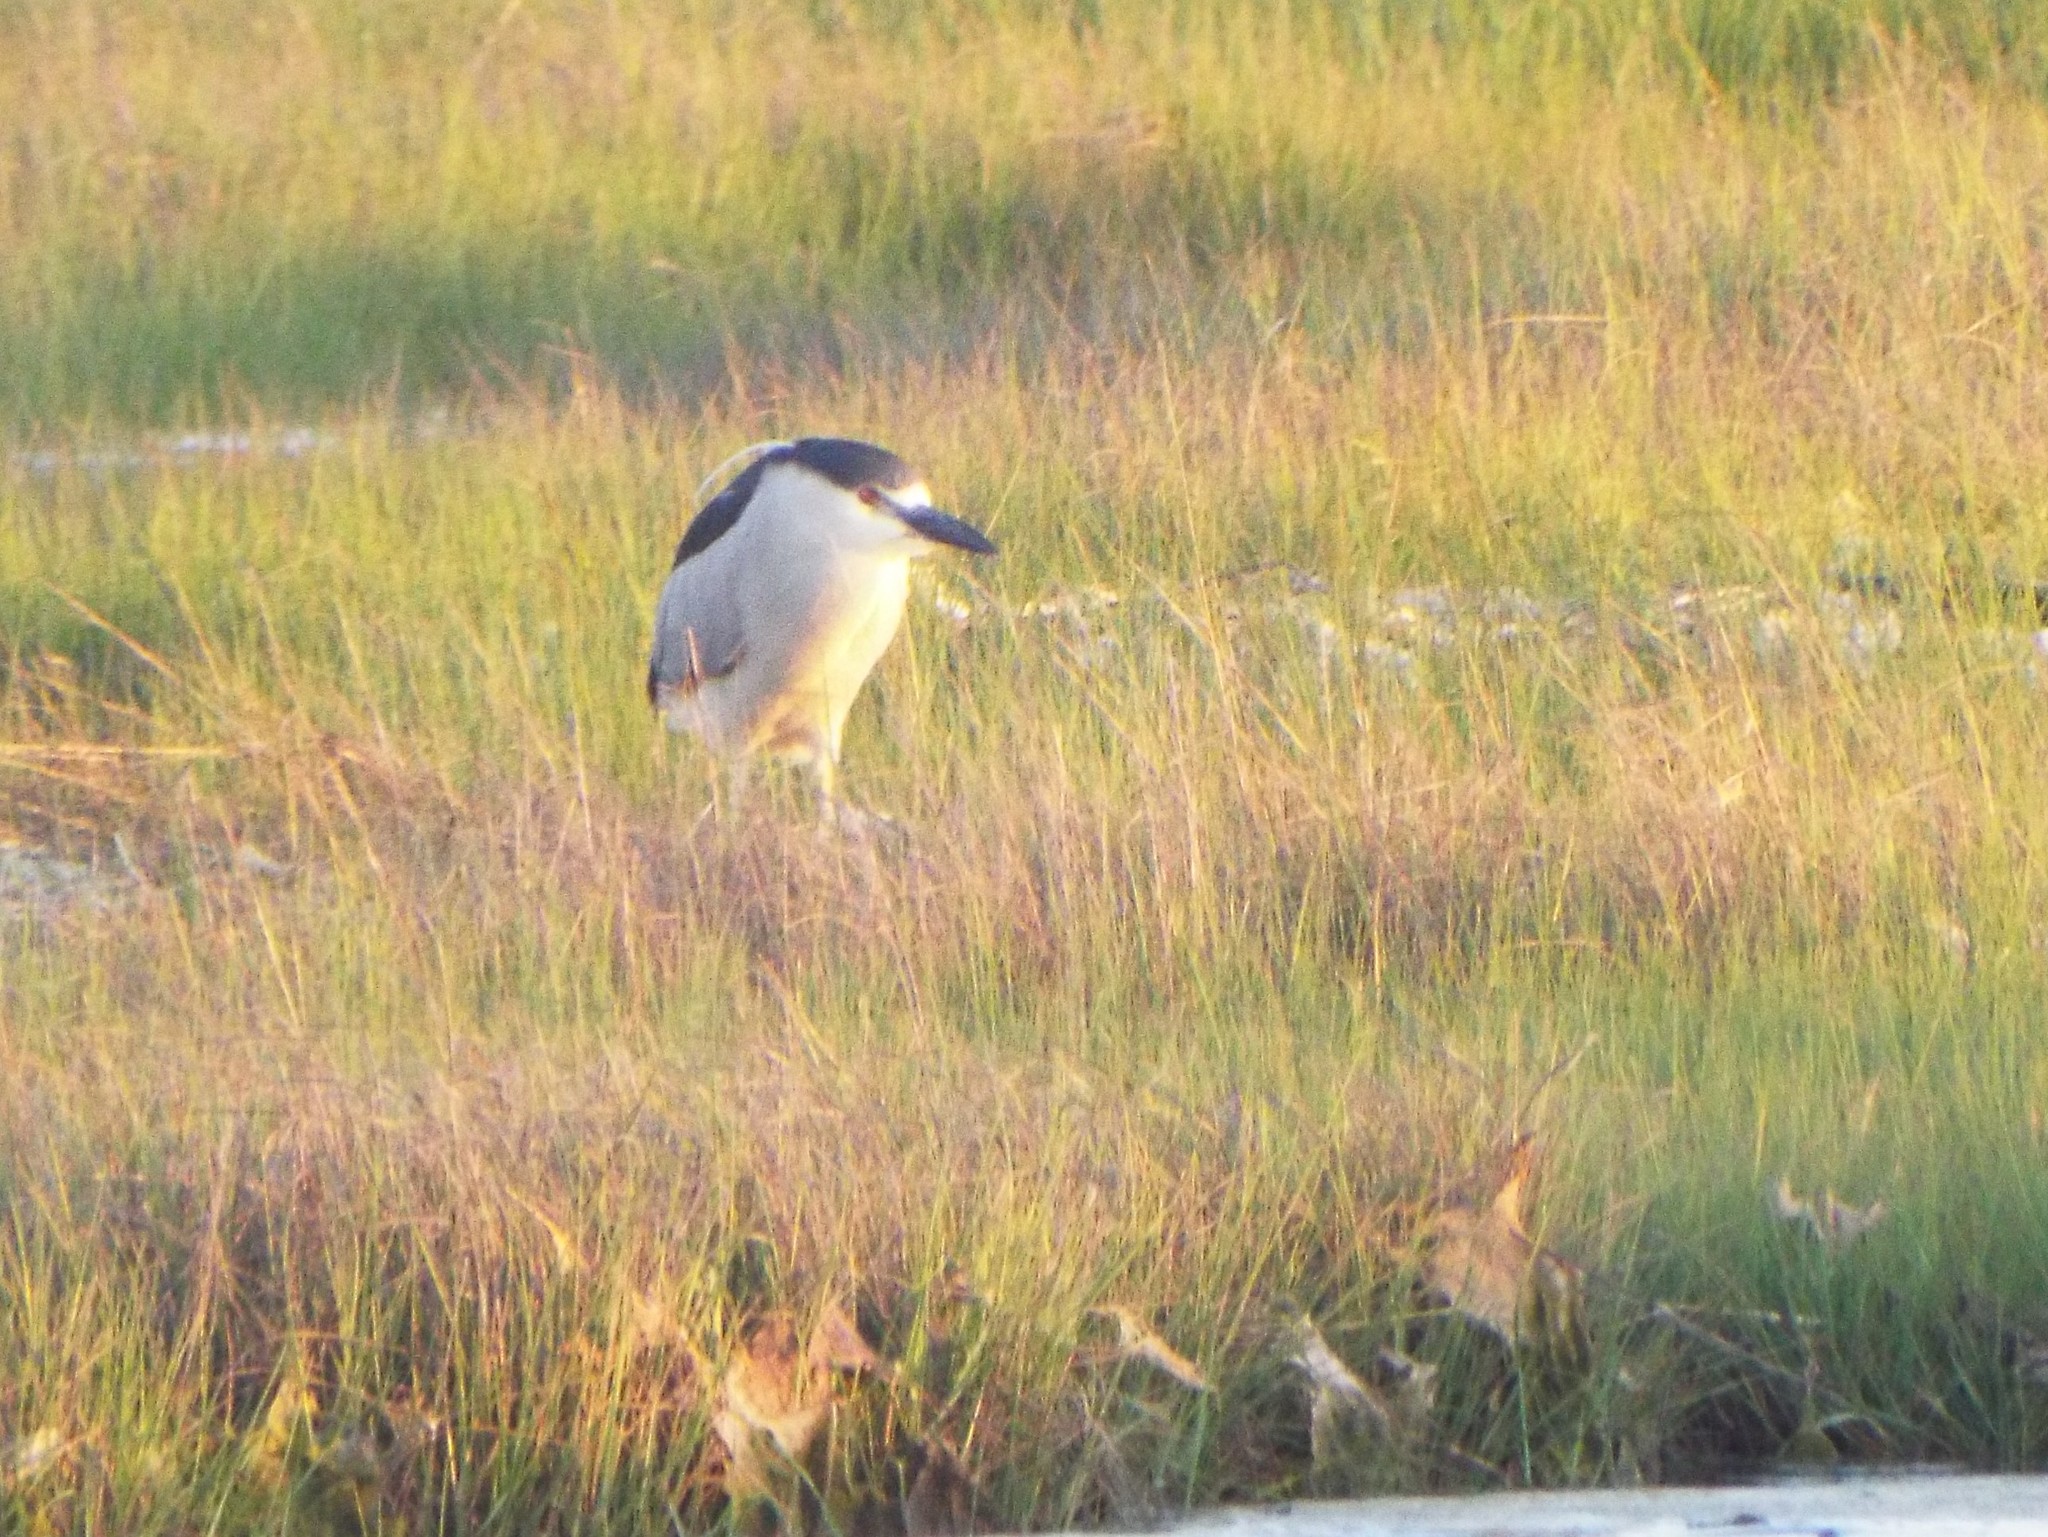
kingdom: Animalia
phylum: Chordata
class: Aves
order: Pelecaniformes
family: Ardeidae
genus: Nycticorax
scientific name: Nycticorax nycticorax
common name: Black-crowned night heron
